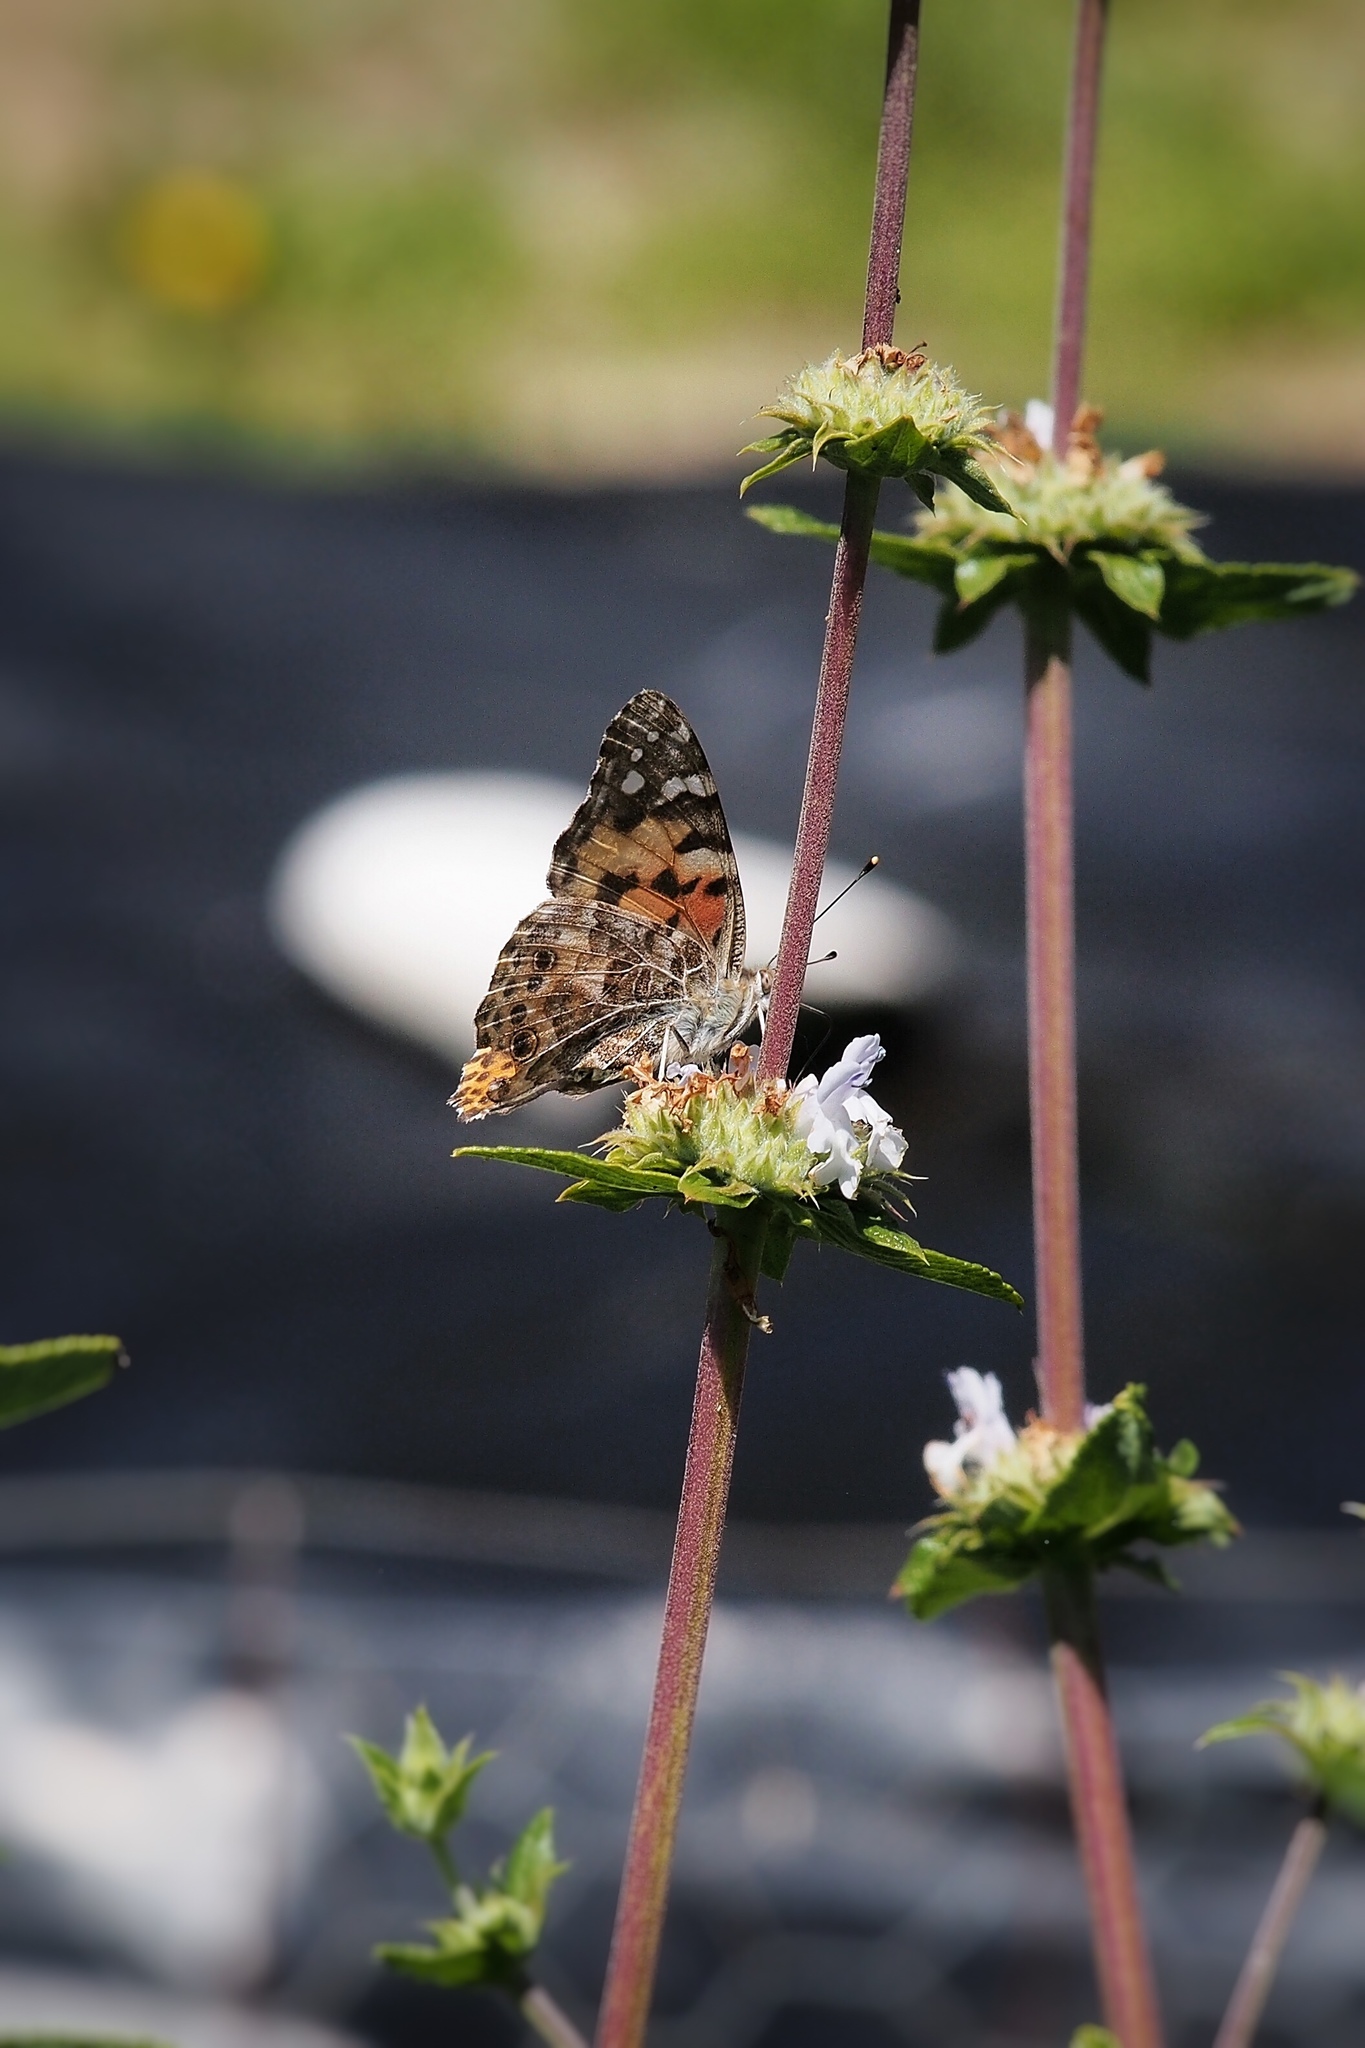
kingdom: Animalia
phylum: Arthropoda
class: Insecta
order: Lepidoptera
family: Nymphalidae
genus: Vanessa
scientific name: Vanessa cardui
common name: Painted lady
